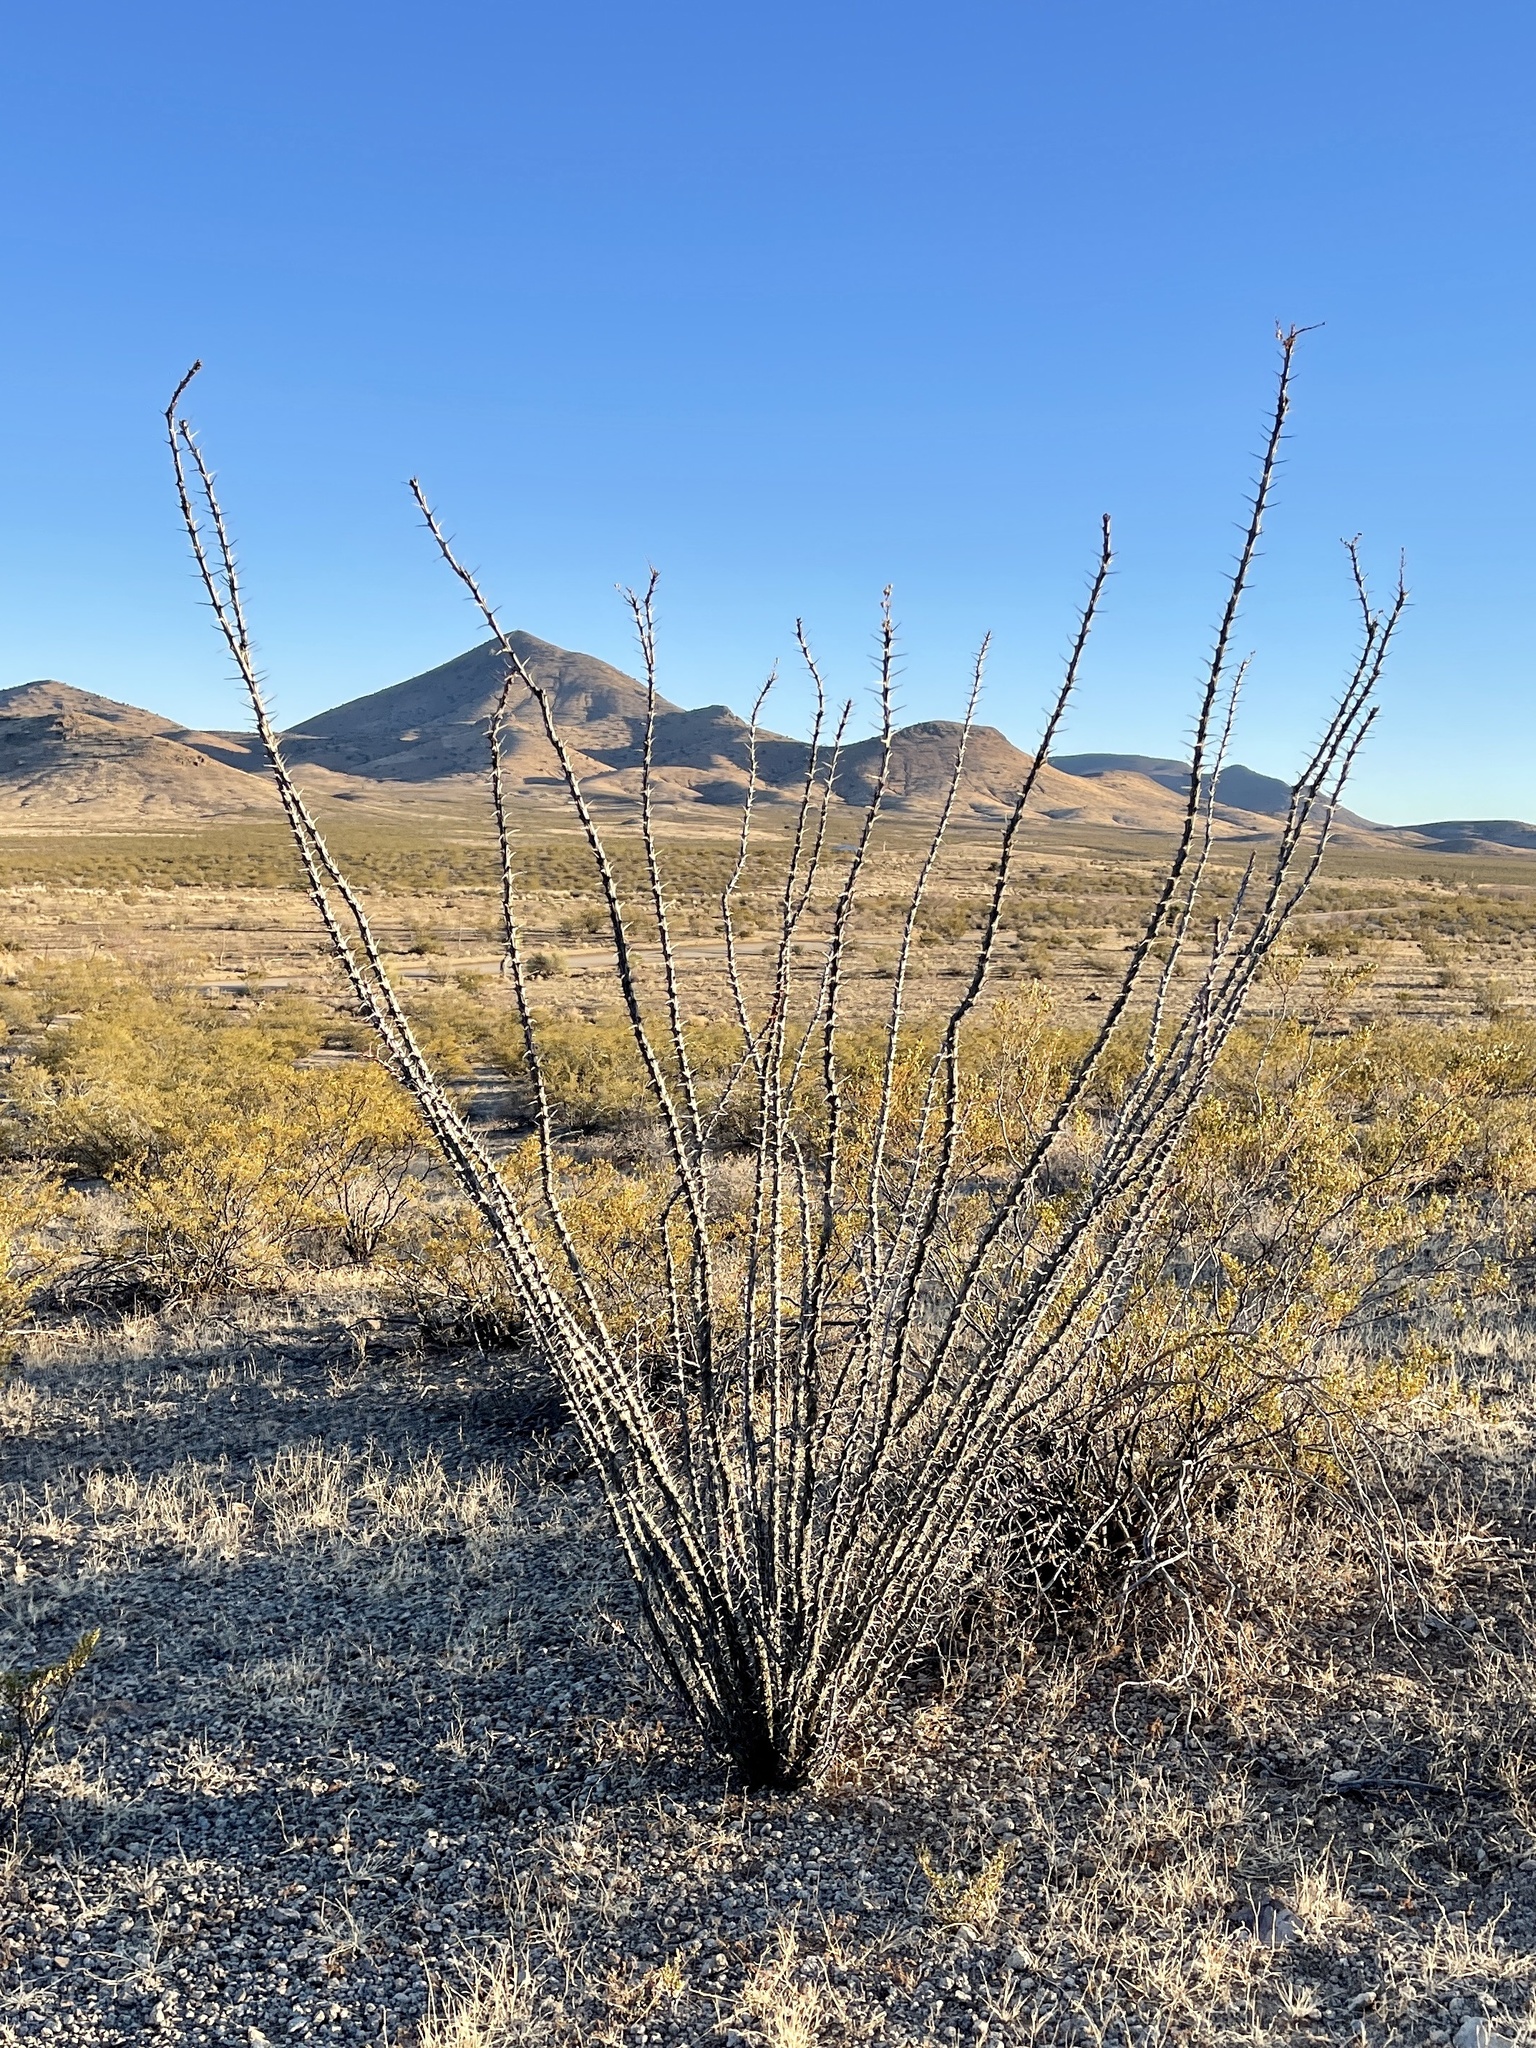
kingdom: Plantae
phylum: Tracheophyta
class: Magnoliopsida
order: Ericales
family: Fouquieriaceae
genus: Fouquieria
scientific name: Fouquieria splendens
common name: Vine-cactus
